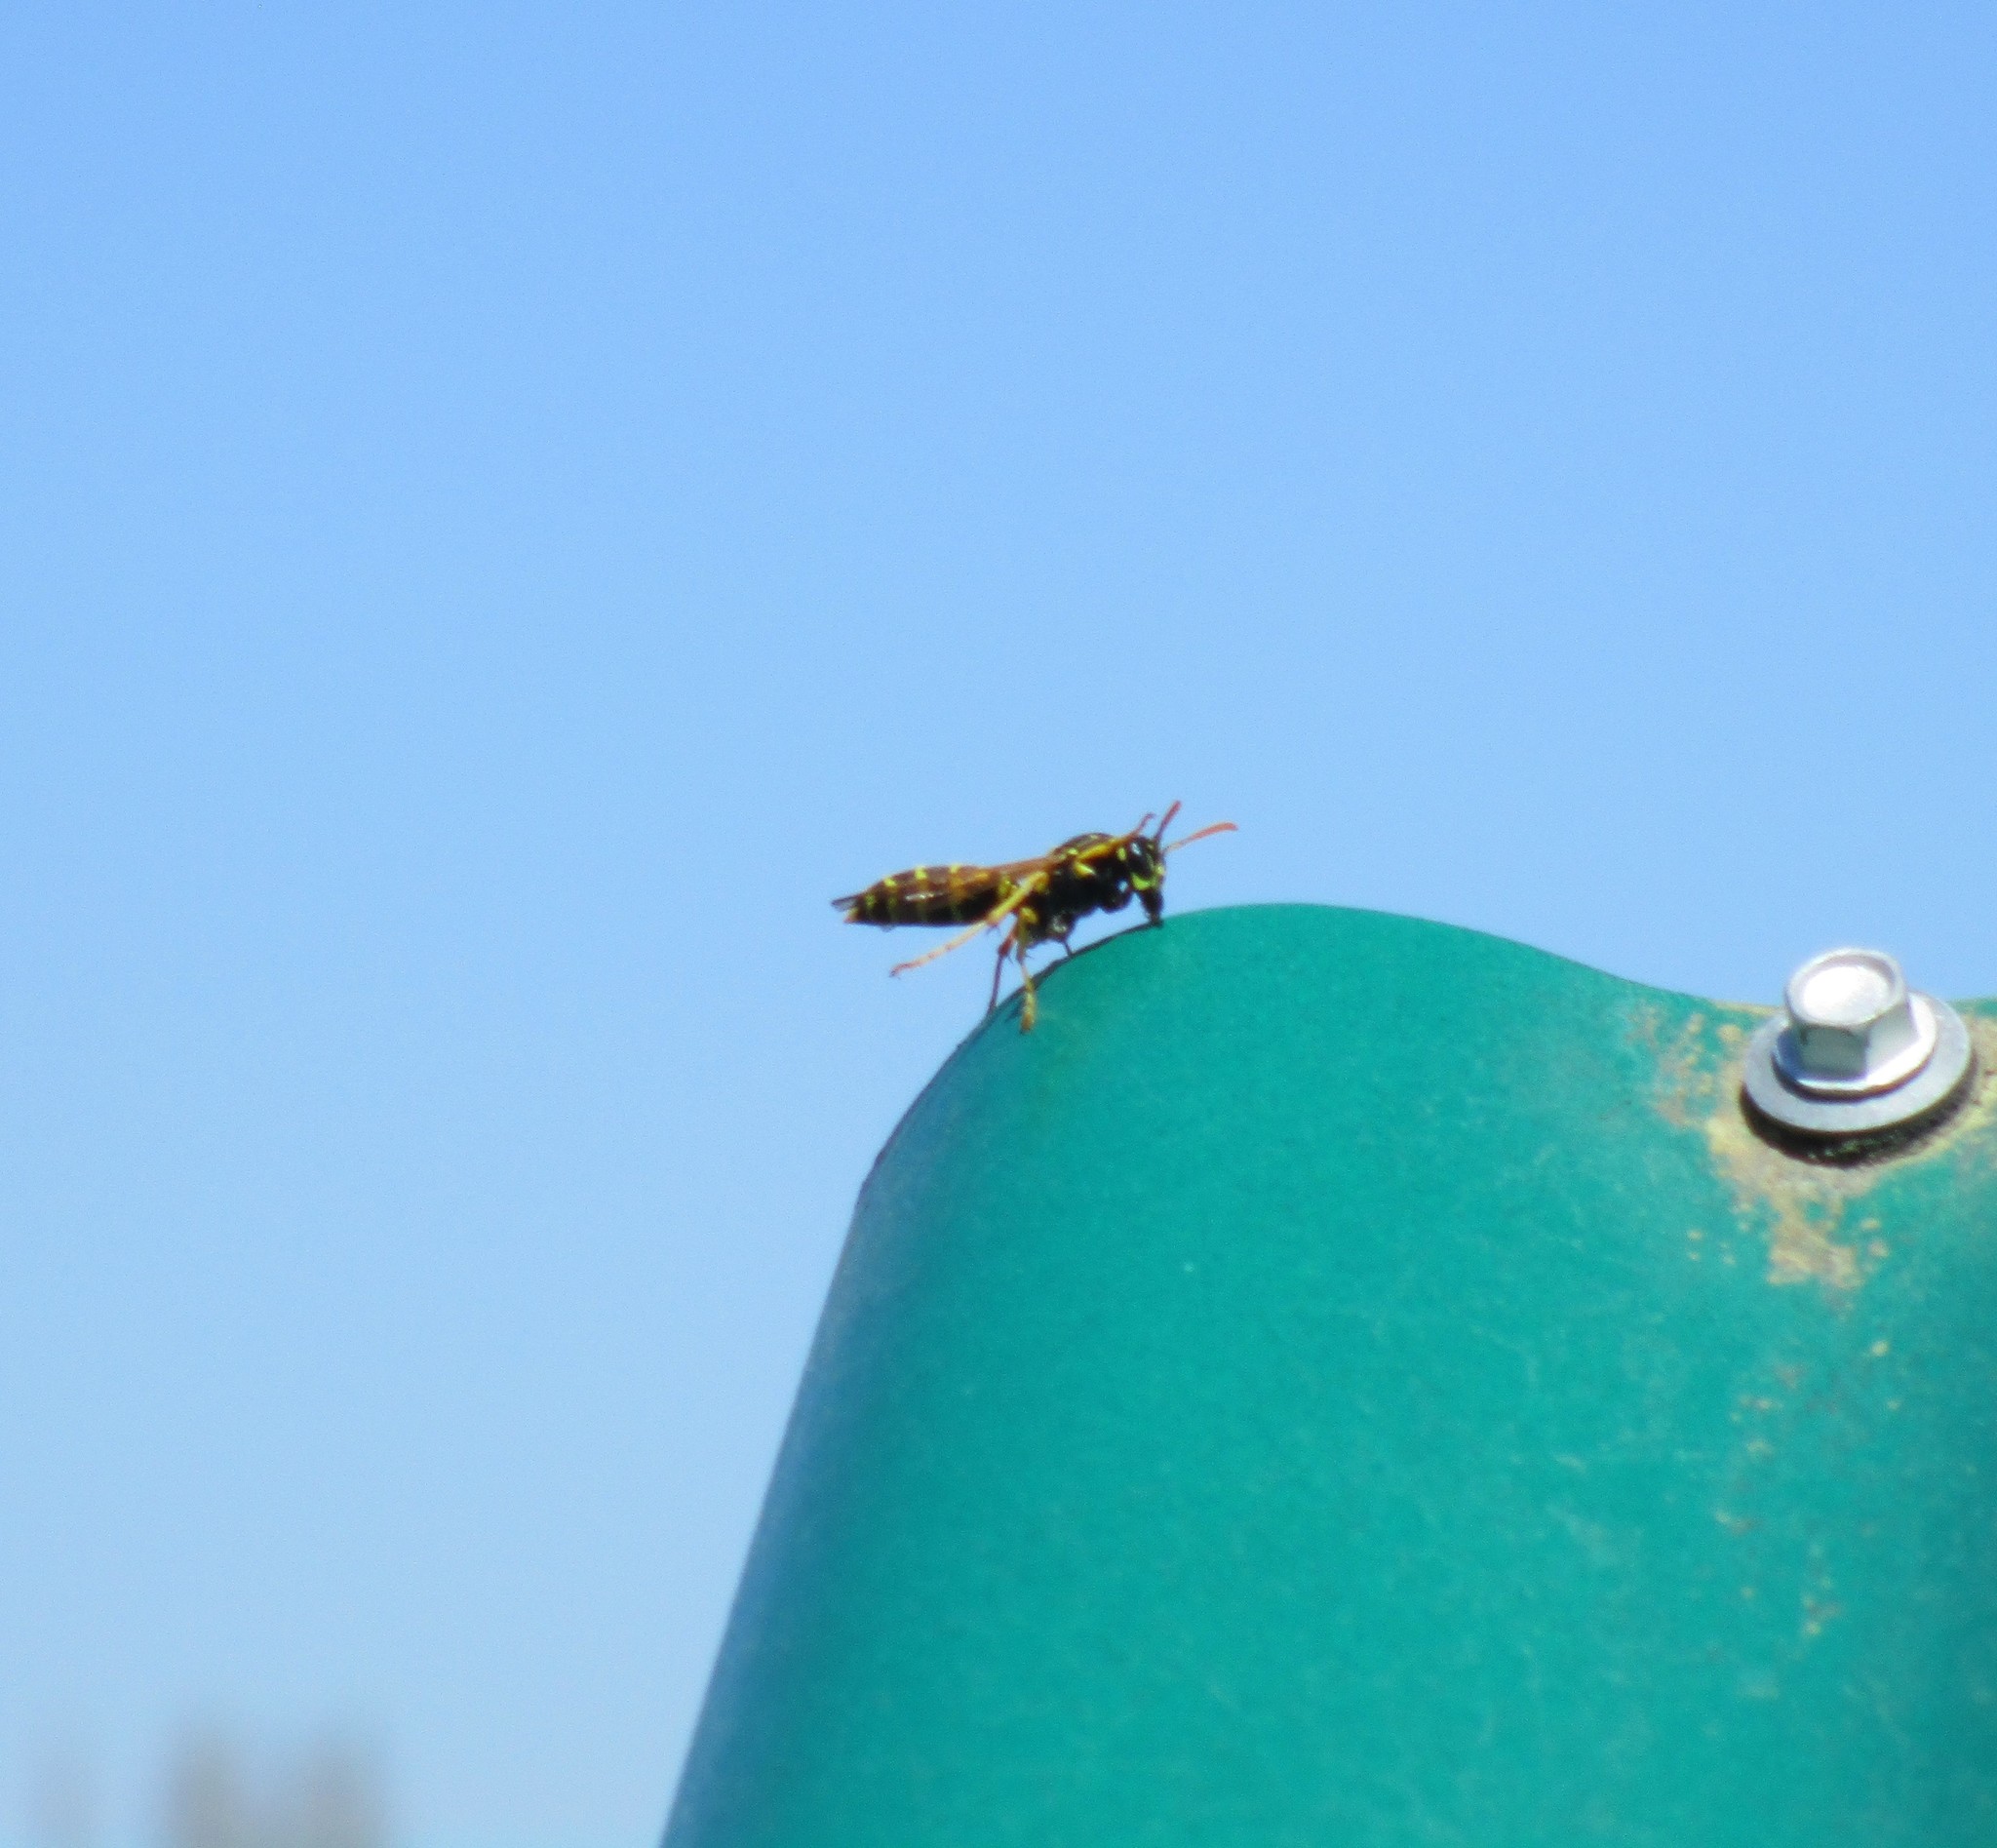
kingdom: Animalia
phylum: Arthropoda
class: Insecta
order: Hymenoptera
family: Eumenidae
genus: Polistes
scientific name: Polistes dominula
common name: Paper wasp
